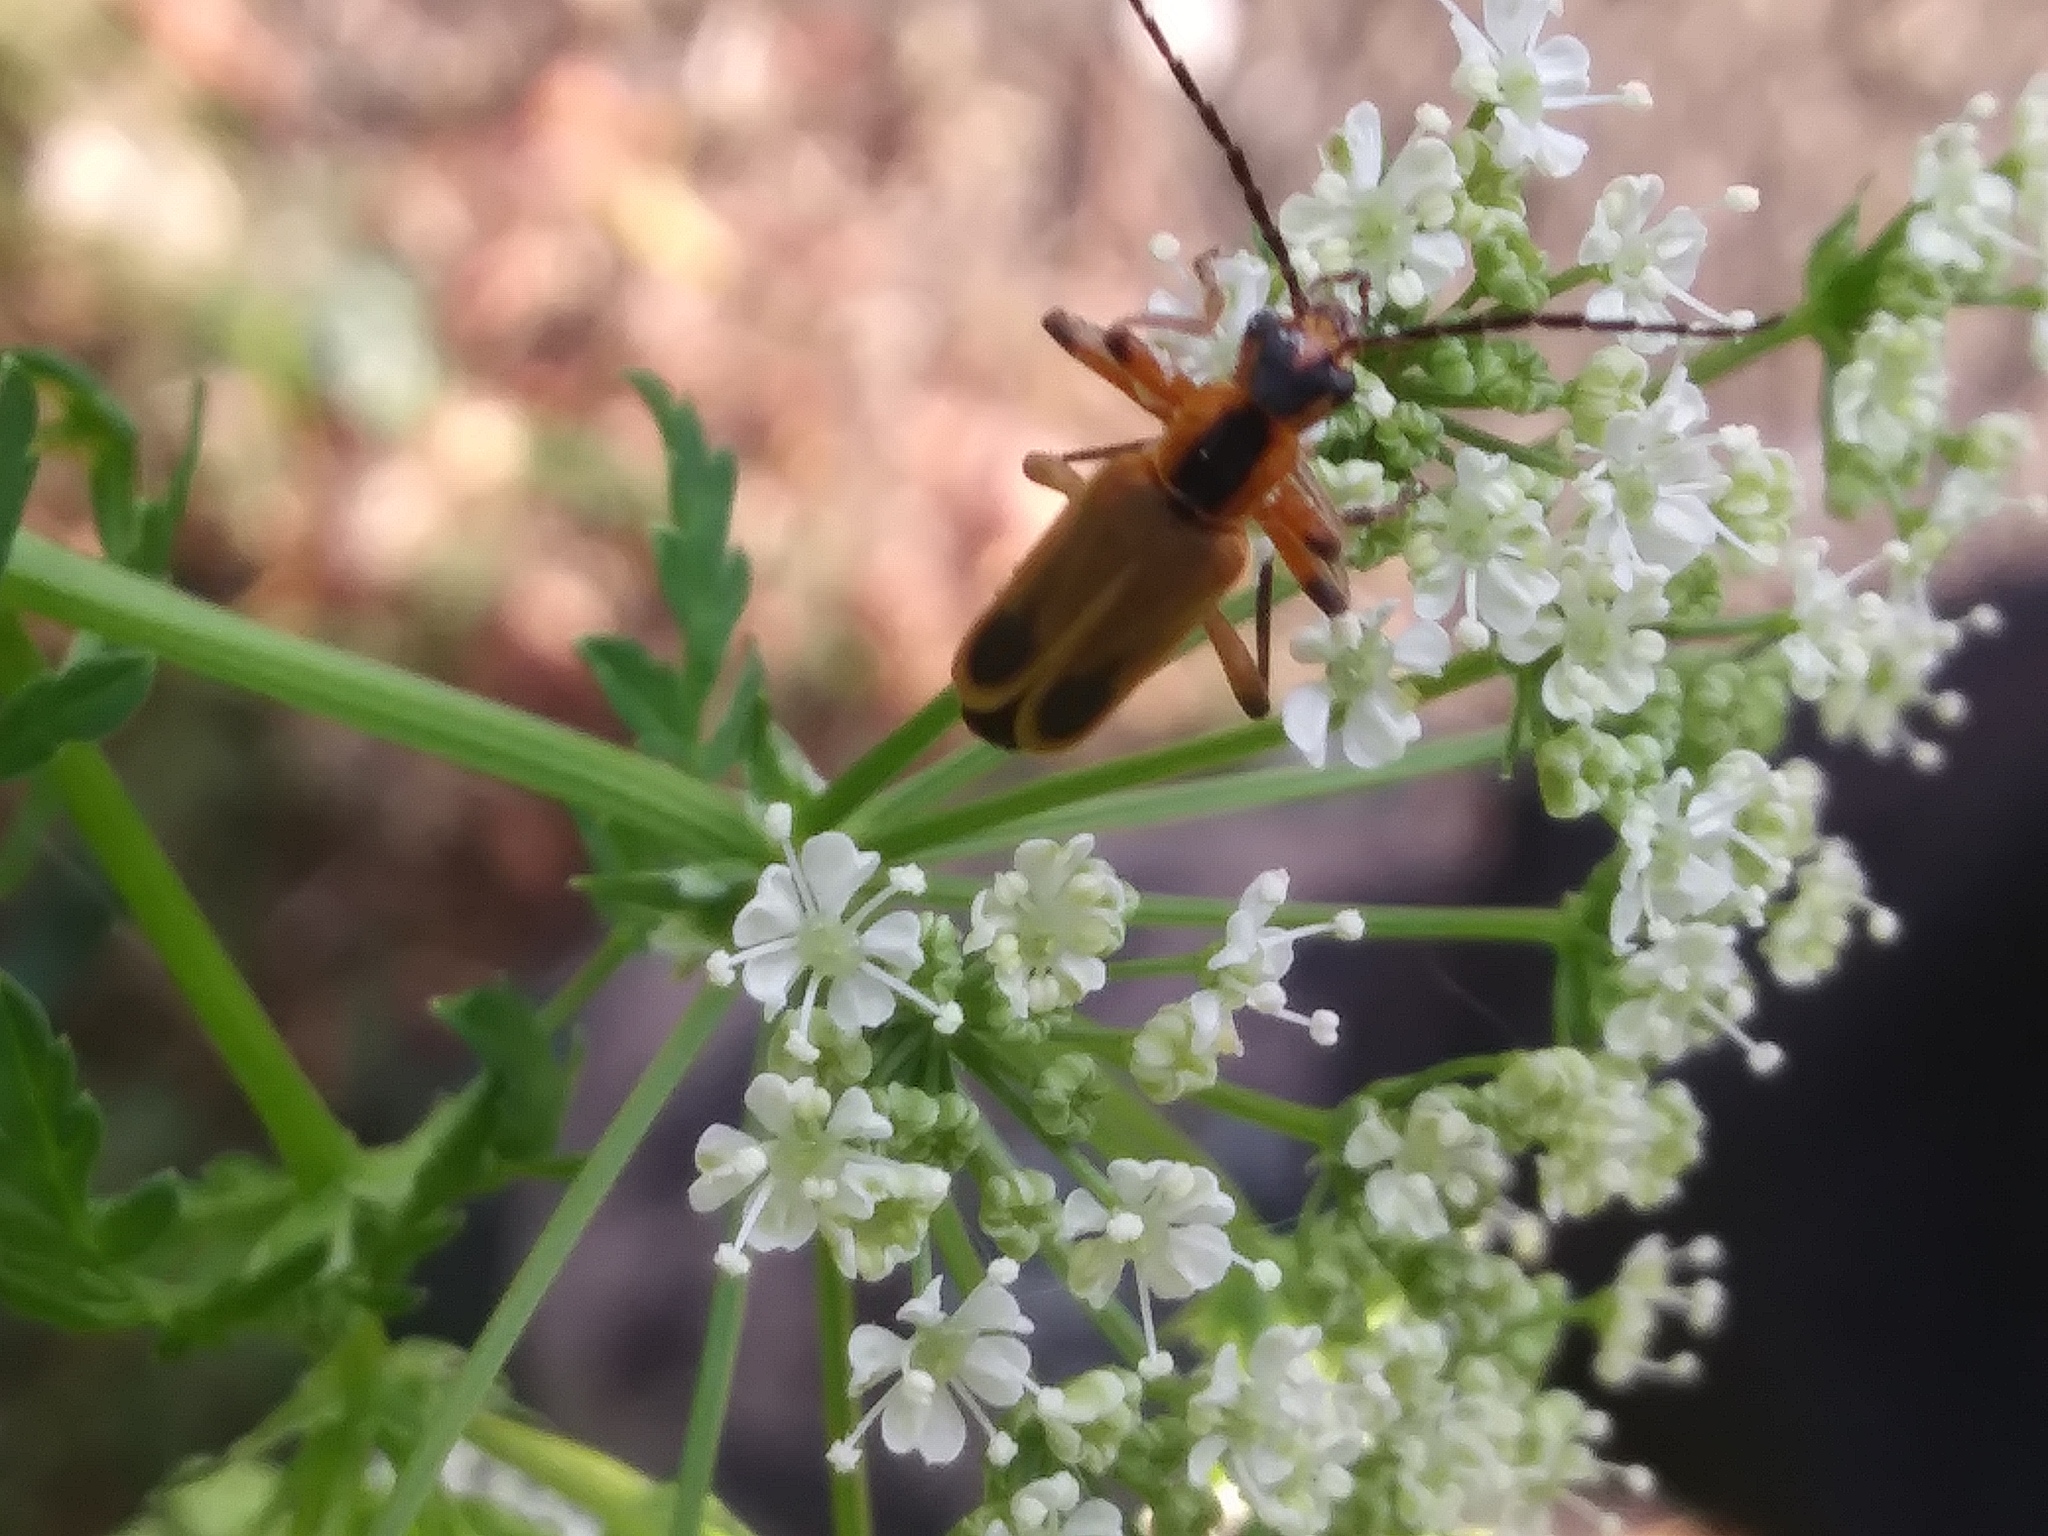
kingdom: Animalia
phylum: Arthropoda
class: Insecta
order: Coleoptera
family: Cantharidae
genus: Chauliognathus
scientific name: Chauliognathus marginatus
